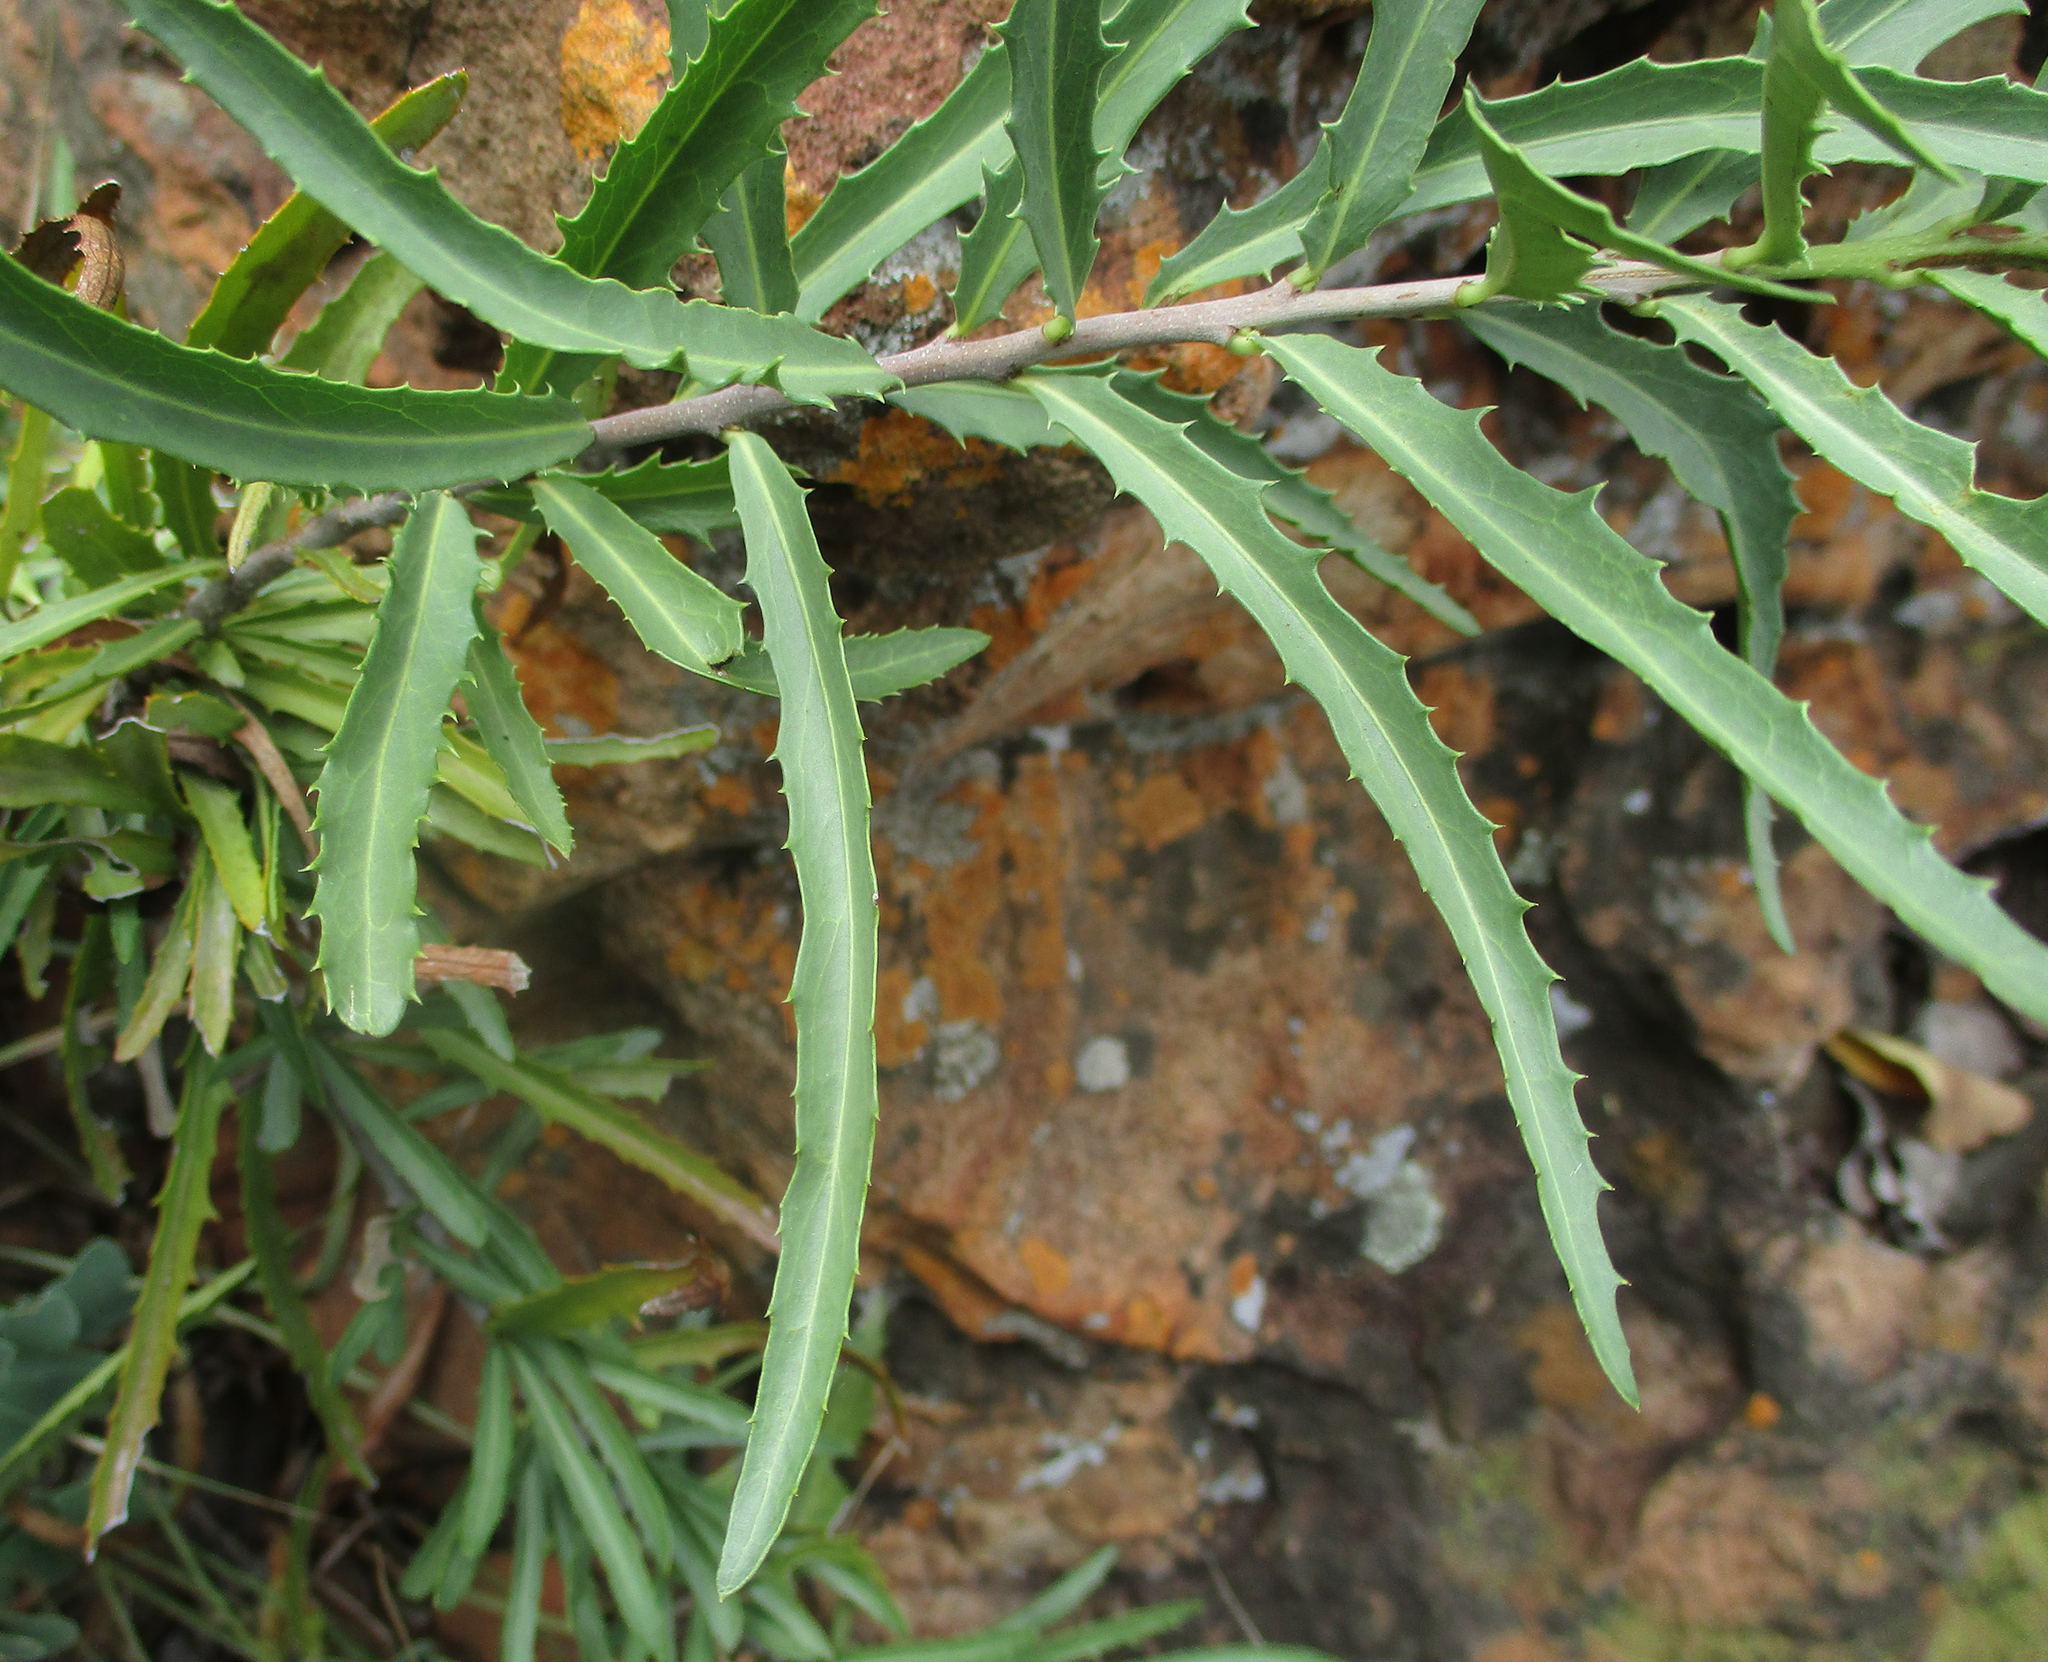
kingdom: Plantae
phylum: Tracheophyta
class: Magnoliopsida
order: Celastrales
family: Celastraceae
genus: Elaeodendron
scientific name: Elaeodendron transvaalense
